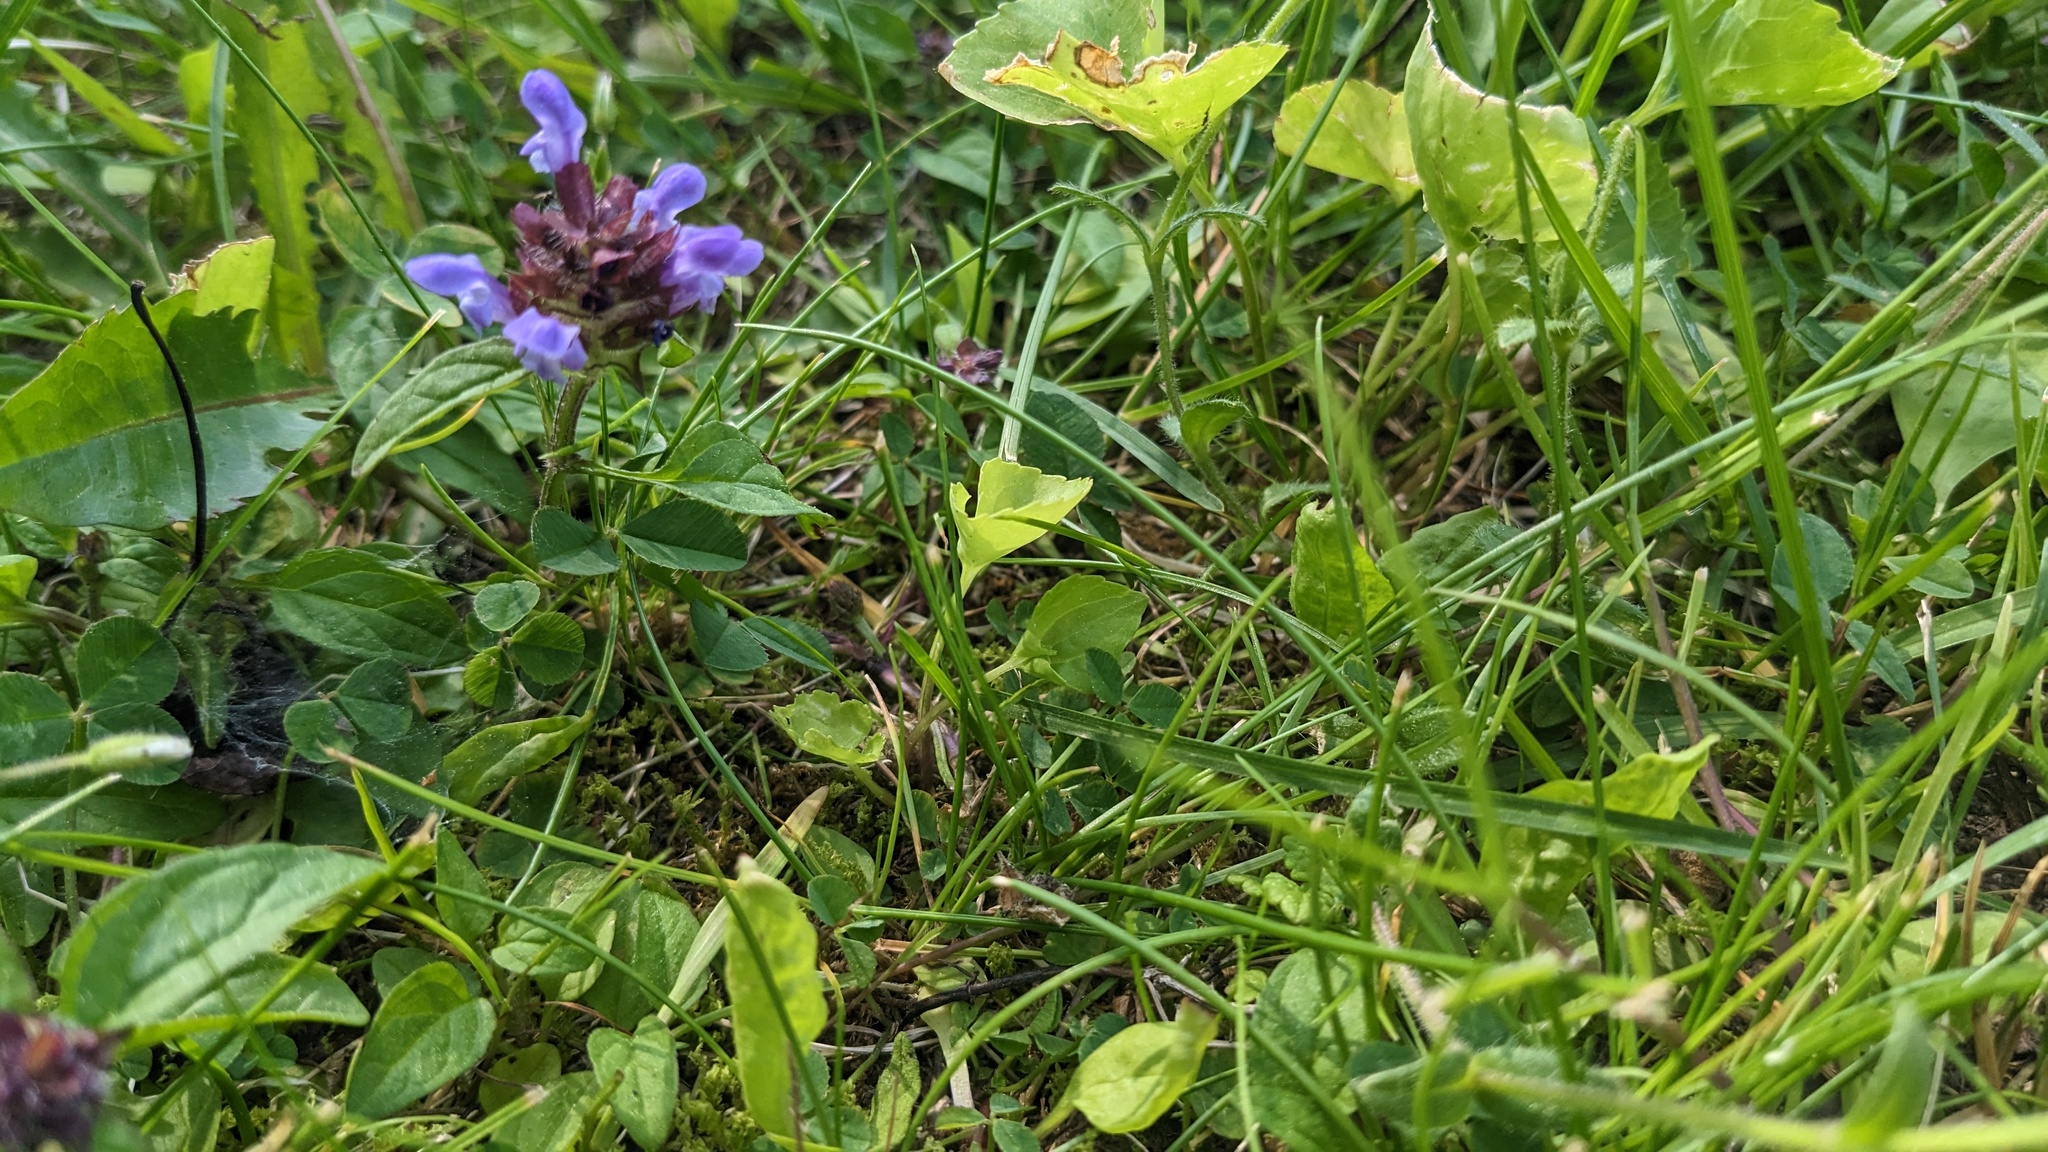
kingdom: Plantae
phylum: Tracheophyta
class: Magnoliopsida
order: Lamiales
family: Lamiaceae
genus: Prunella
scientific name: Prunella vulgaris
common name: Heal-all
